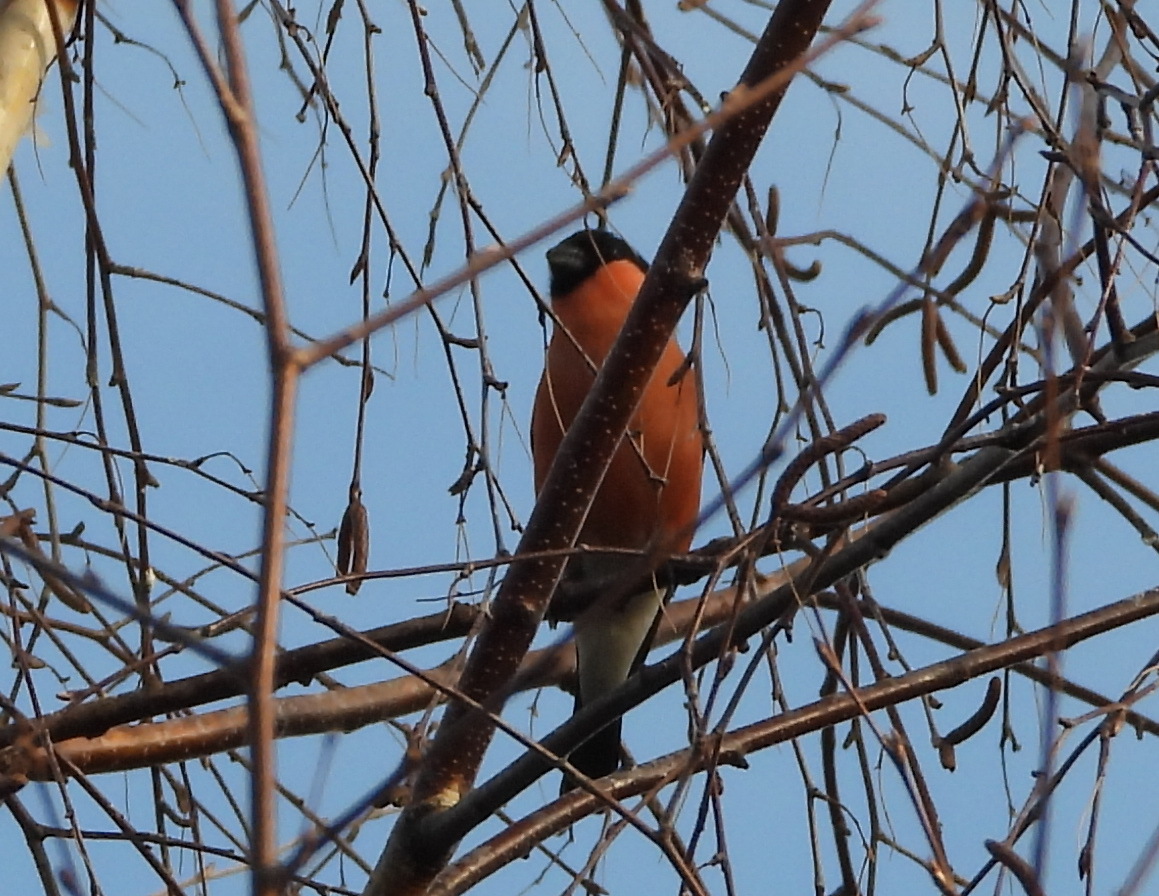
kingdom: Animalia
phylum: Chordata
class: Aves
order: Passeriformes
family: Fringillidae
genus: Pyrrhula
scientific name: Pyrrhula pyrrhula
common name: Eurasian bullfinch
